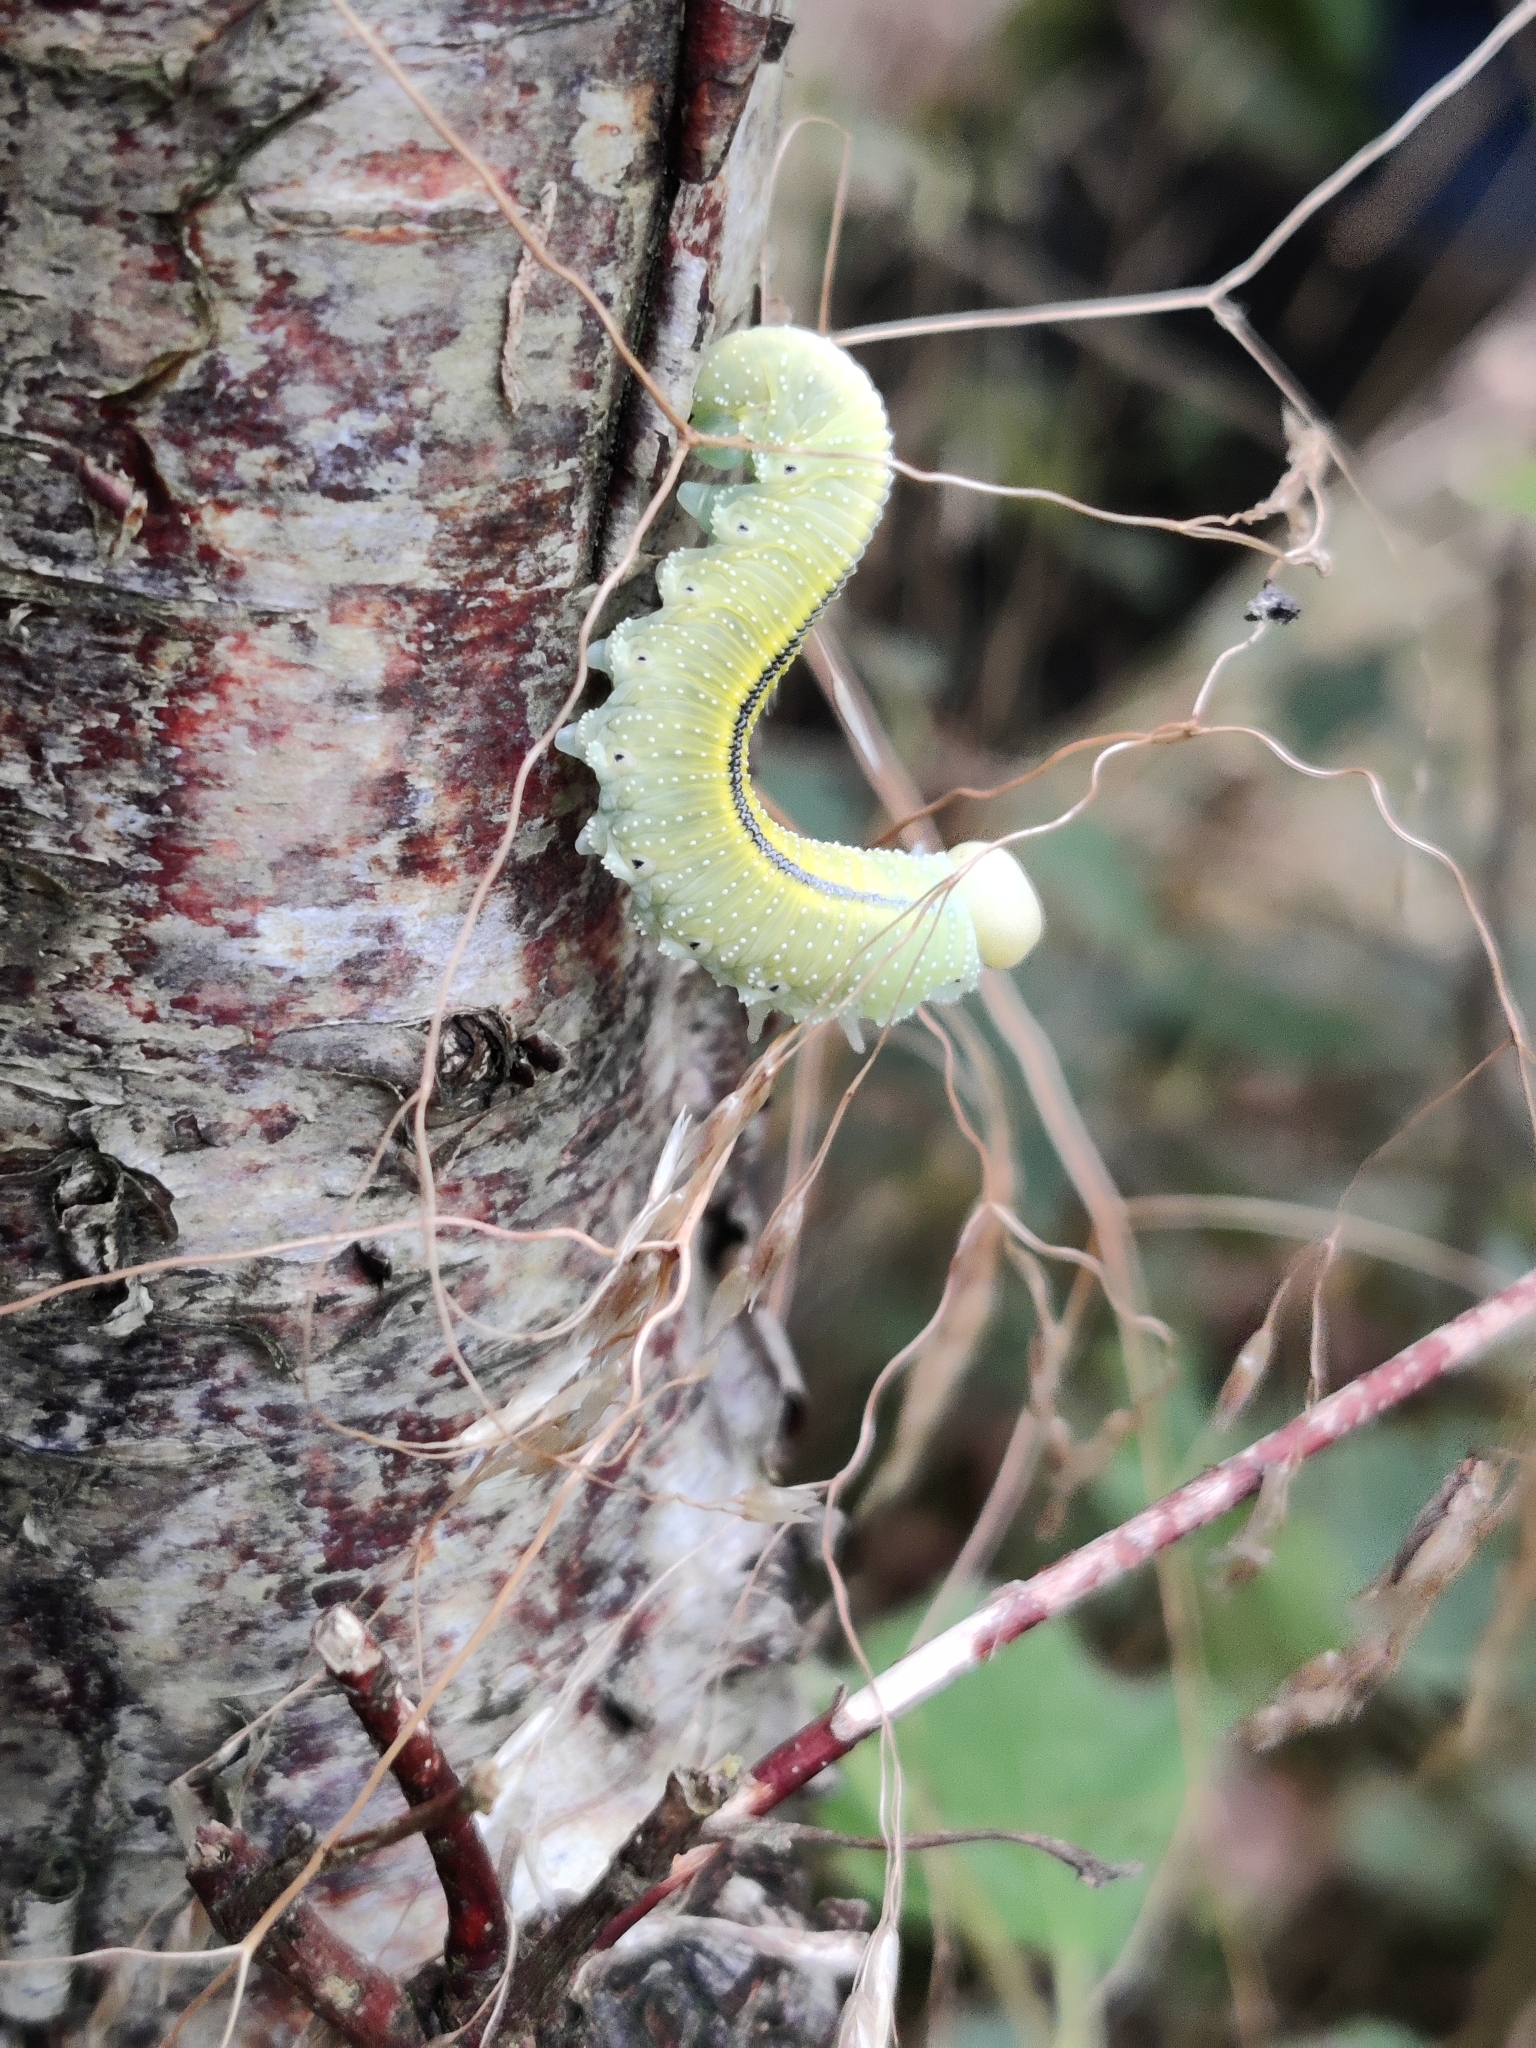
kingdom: Animalia
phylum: Arthropoda
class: Insecta
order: Hymenoptera
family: Cimbicidae
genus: Cimbex
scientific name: Cimbex femoratus
